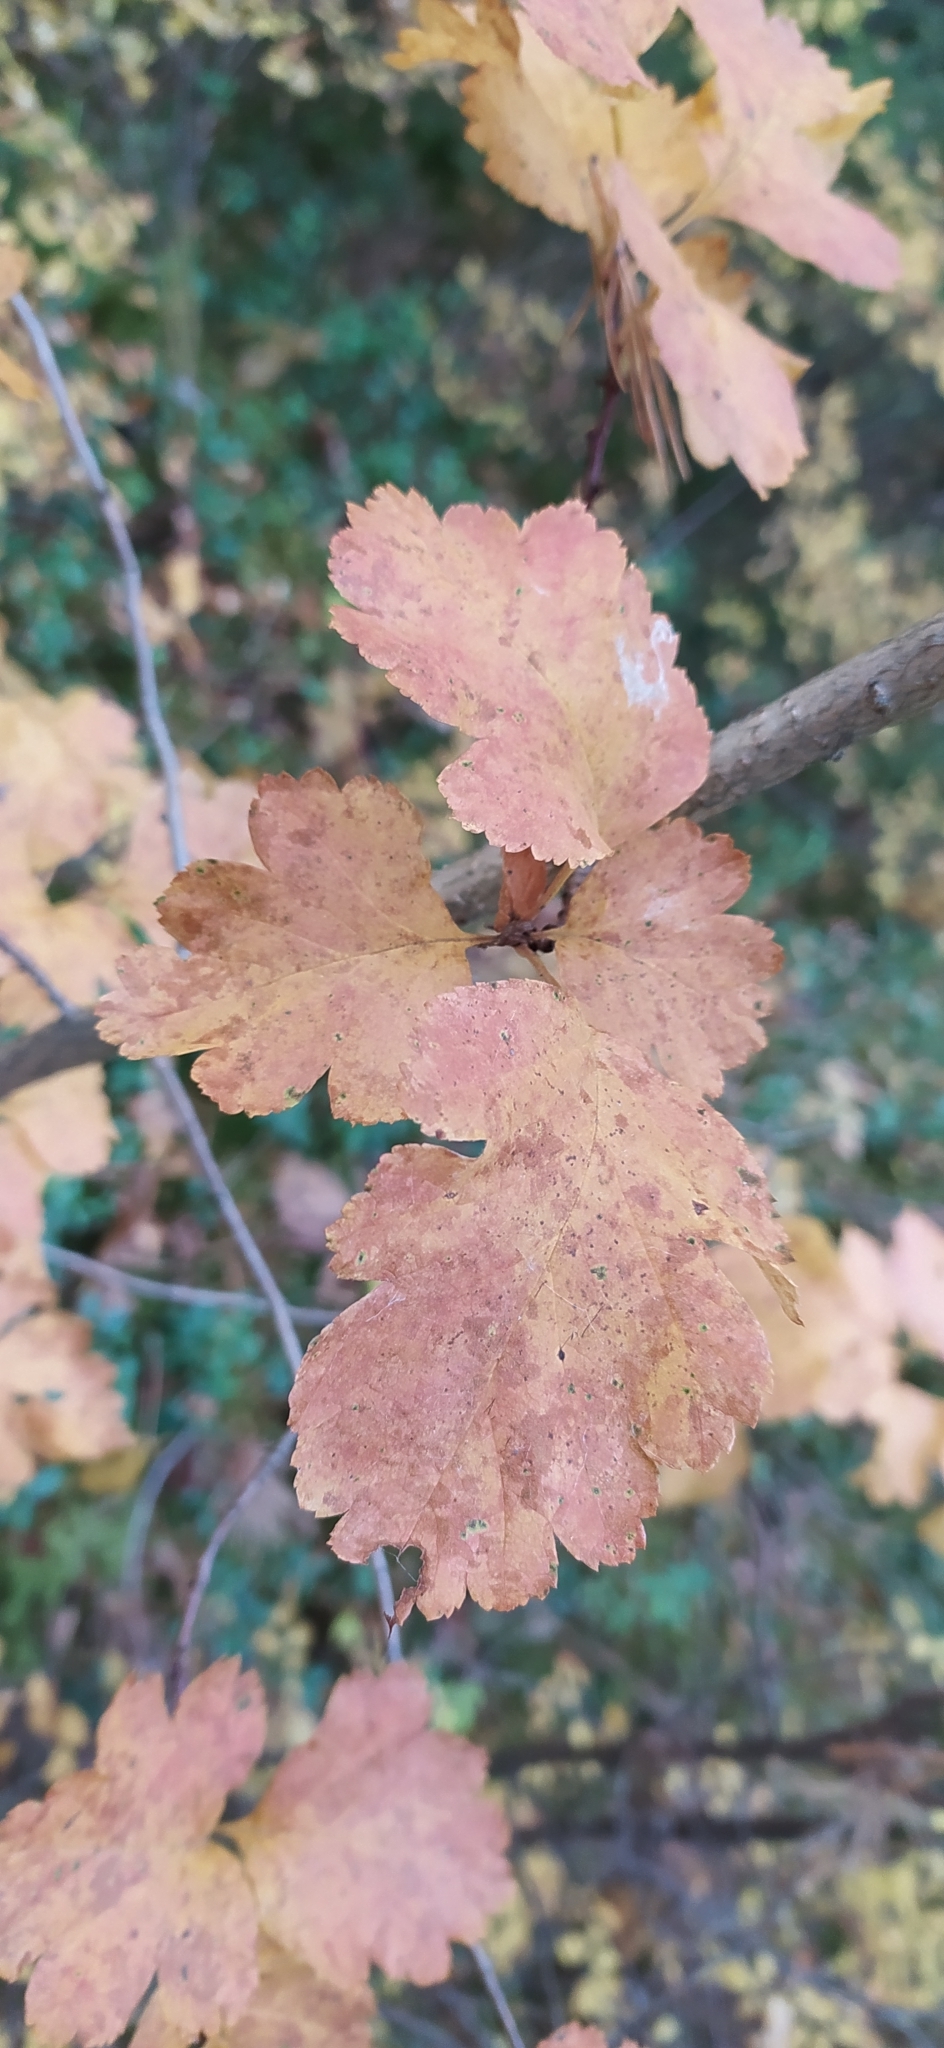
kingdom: Plantae
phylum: Tracheophyta
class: Magnoliopsida
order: Rosales
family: Rosaceae
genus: Crataegus
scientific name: Crataegus sanguinea
